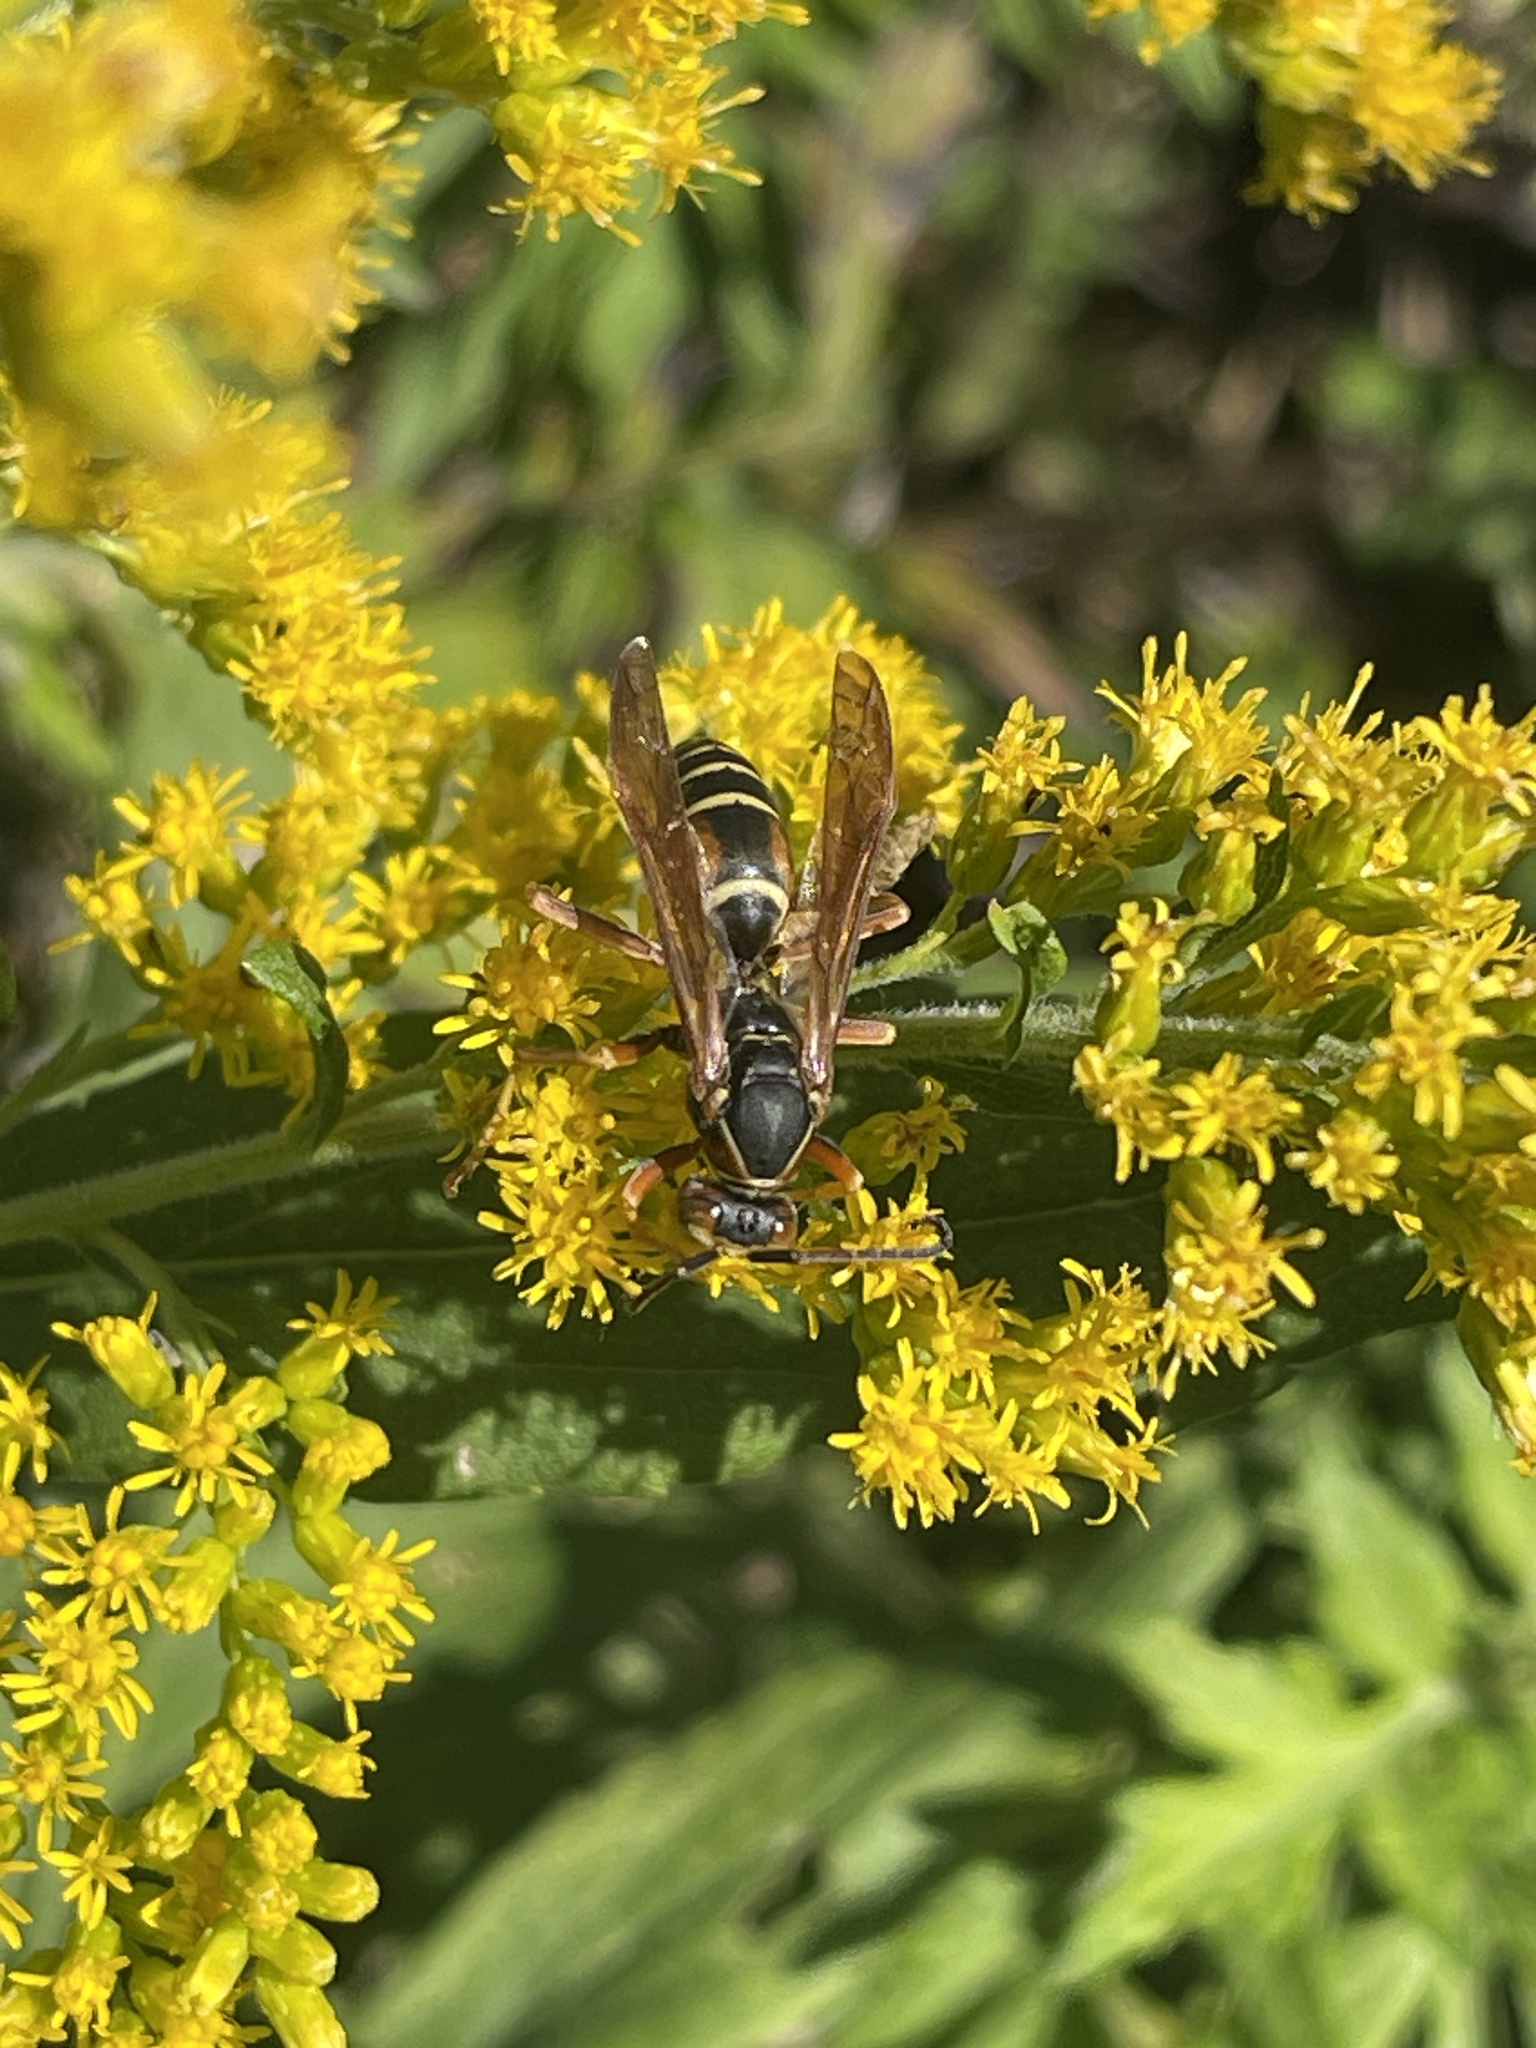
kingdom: Animalia
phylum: Arthropoda
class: Insecta
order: Hymenoptera
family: Eumenidae
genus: Polistes
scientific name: Polistes fuscatus
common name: Dark paper wasp
